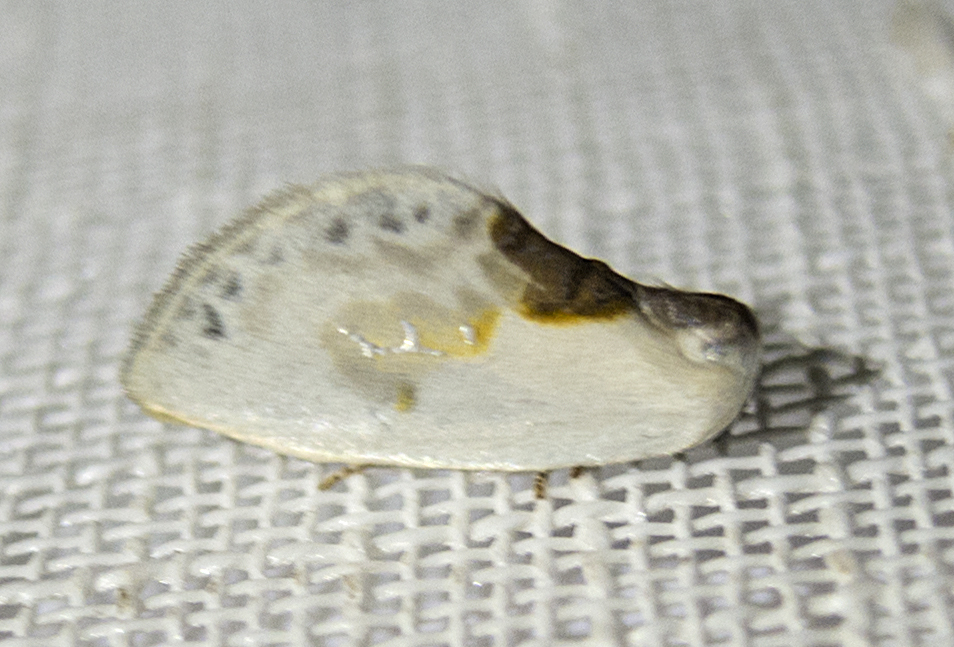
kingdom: Animalia
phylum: Arthropoda
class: Insecta
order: Lepidoptera
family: Drepanidae
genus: Cilix
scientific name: Cilix glaucata
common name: Chinese character
